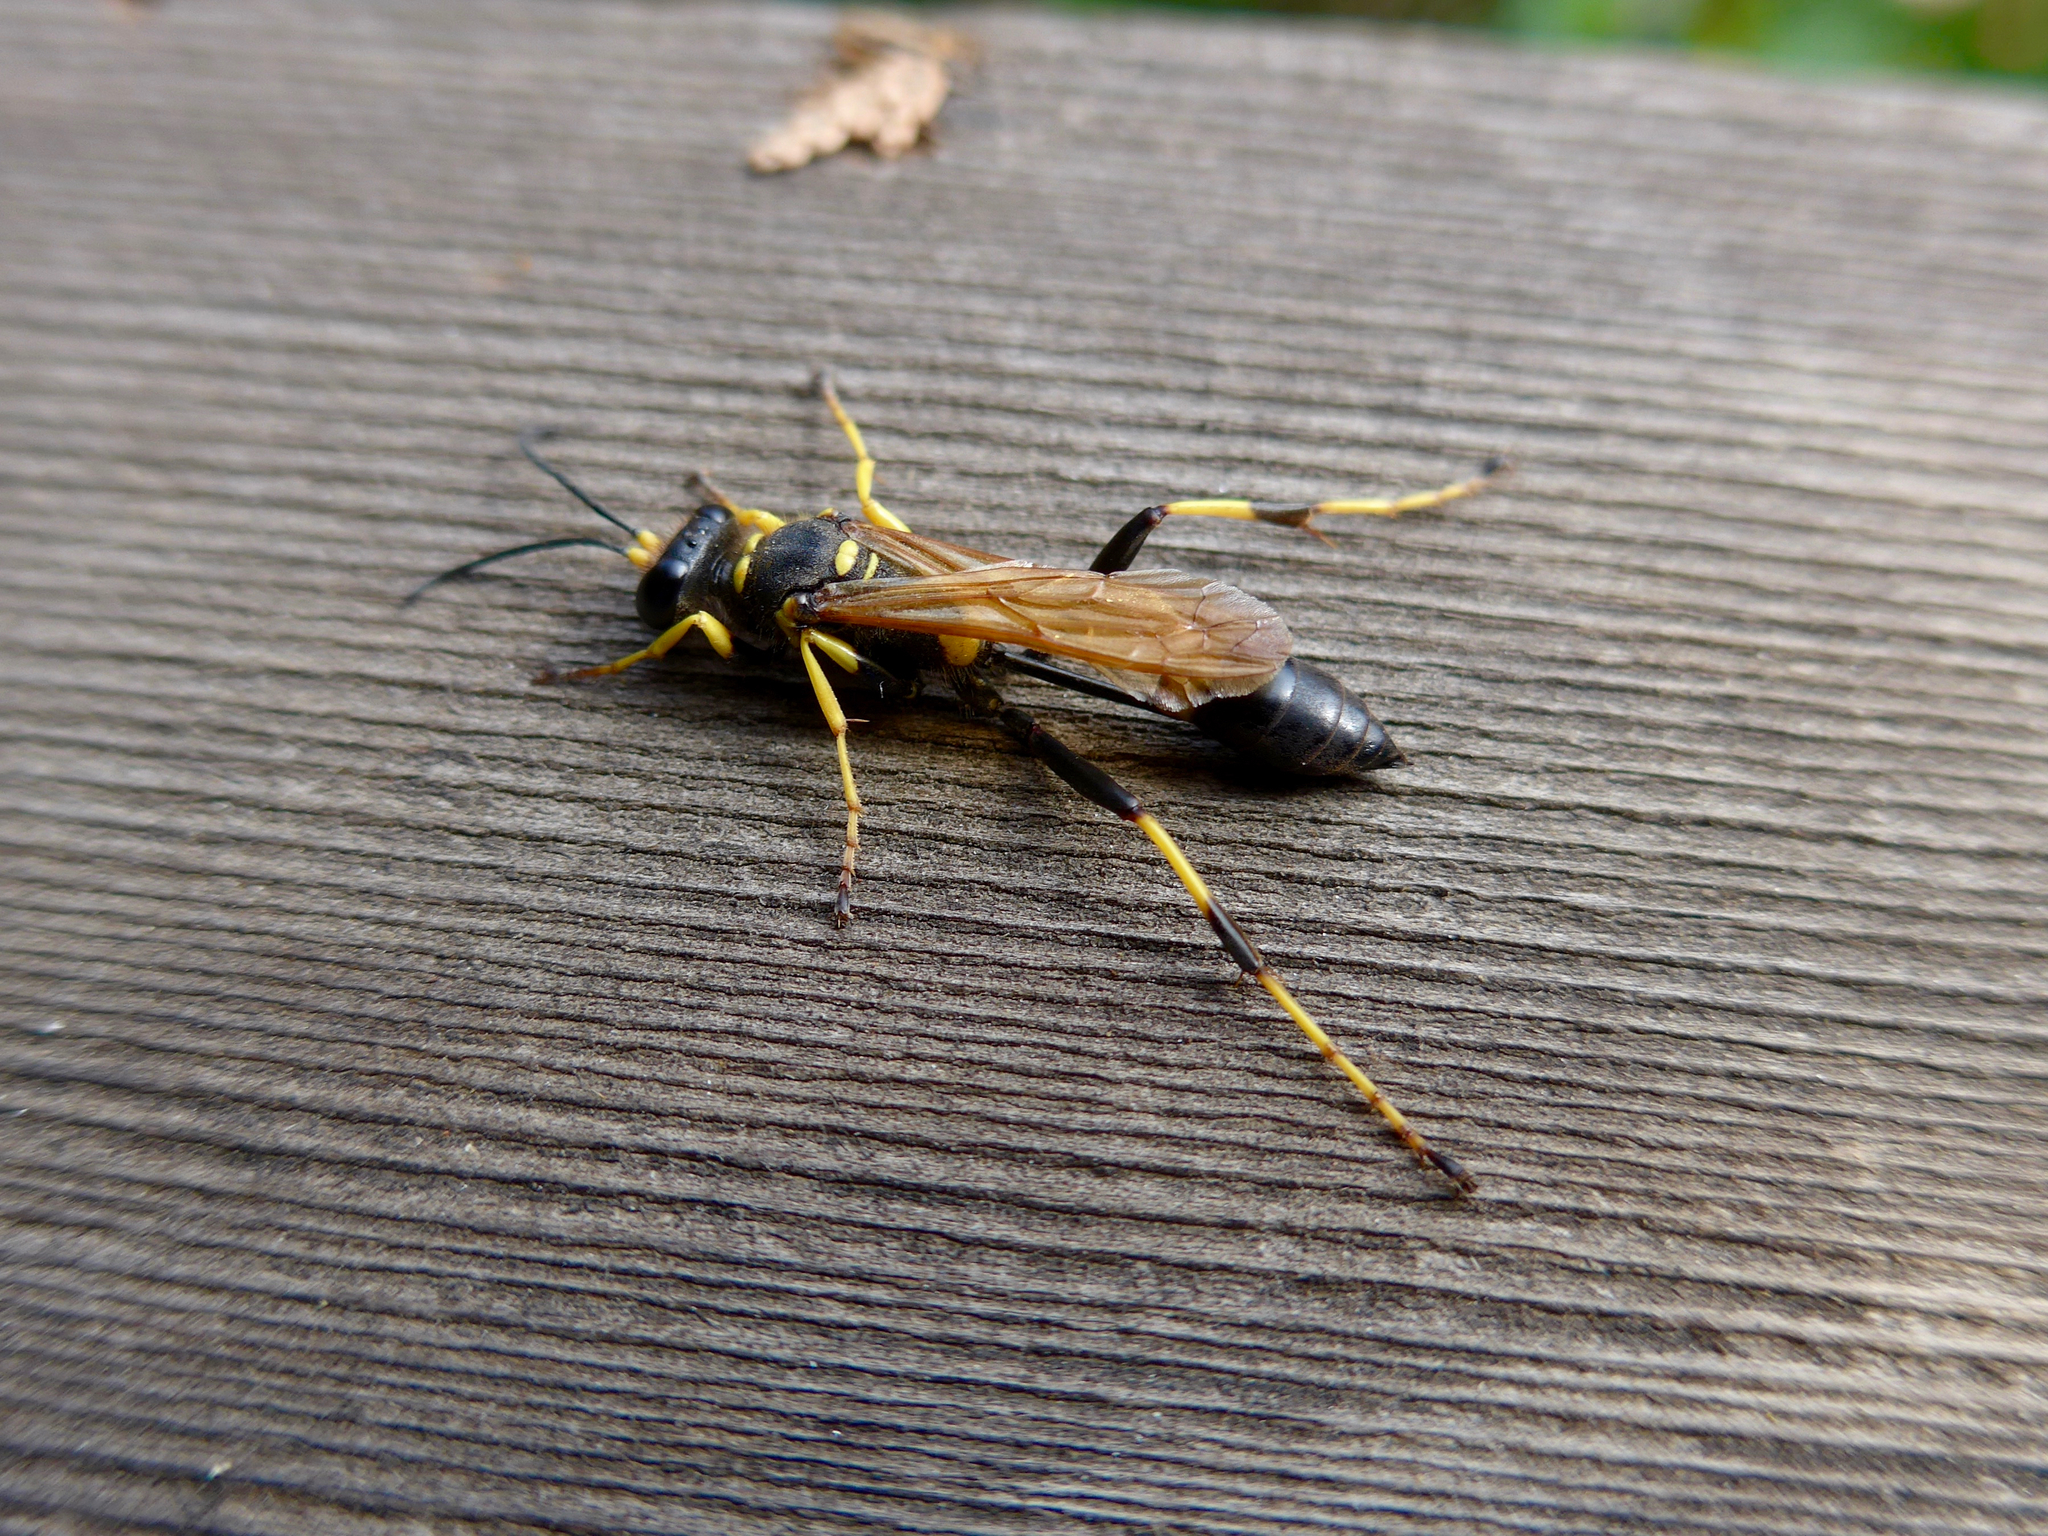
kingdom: Animalia
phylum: Arthropoda
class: Insecta
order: Hymenoptera
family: Sphecidae
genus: Sceliphron
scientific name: Sceliphron caementarium
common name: Mud dauber
